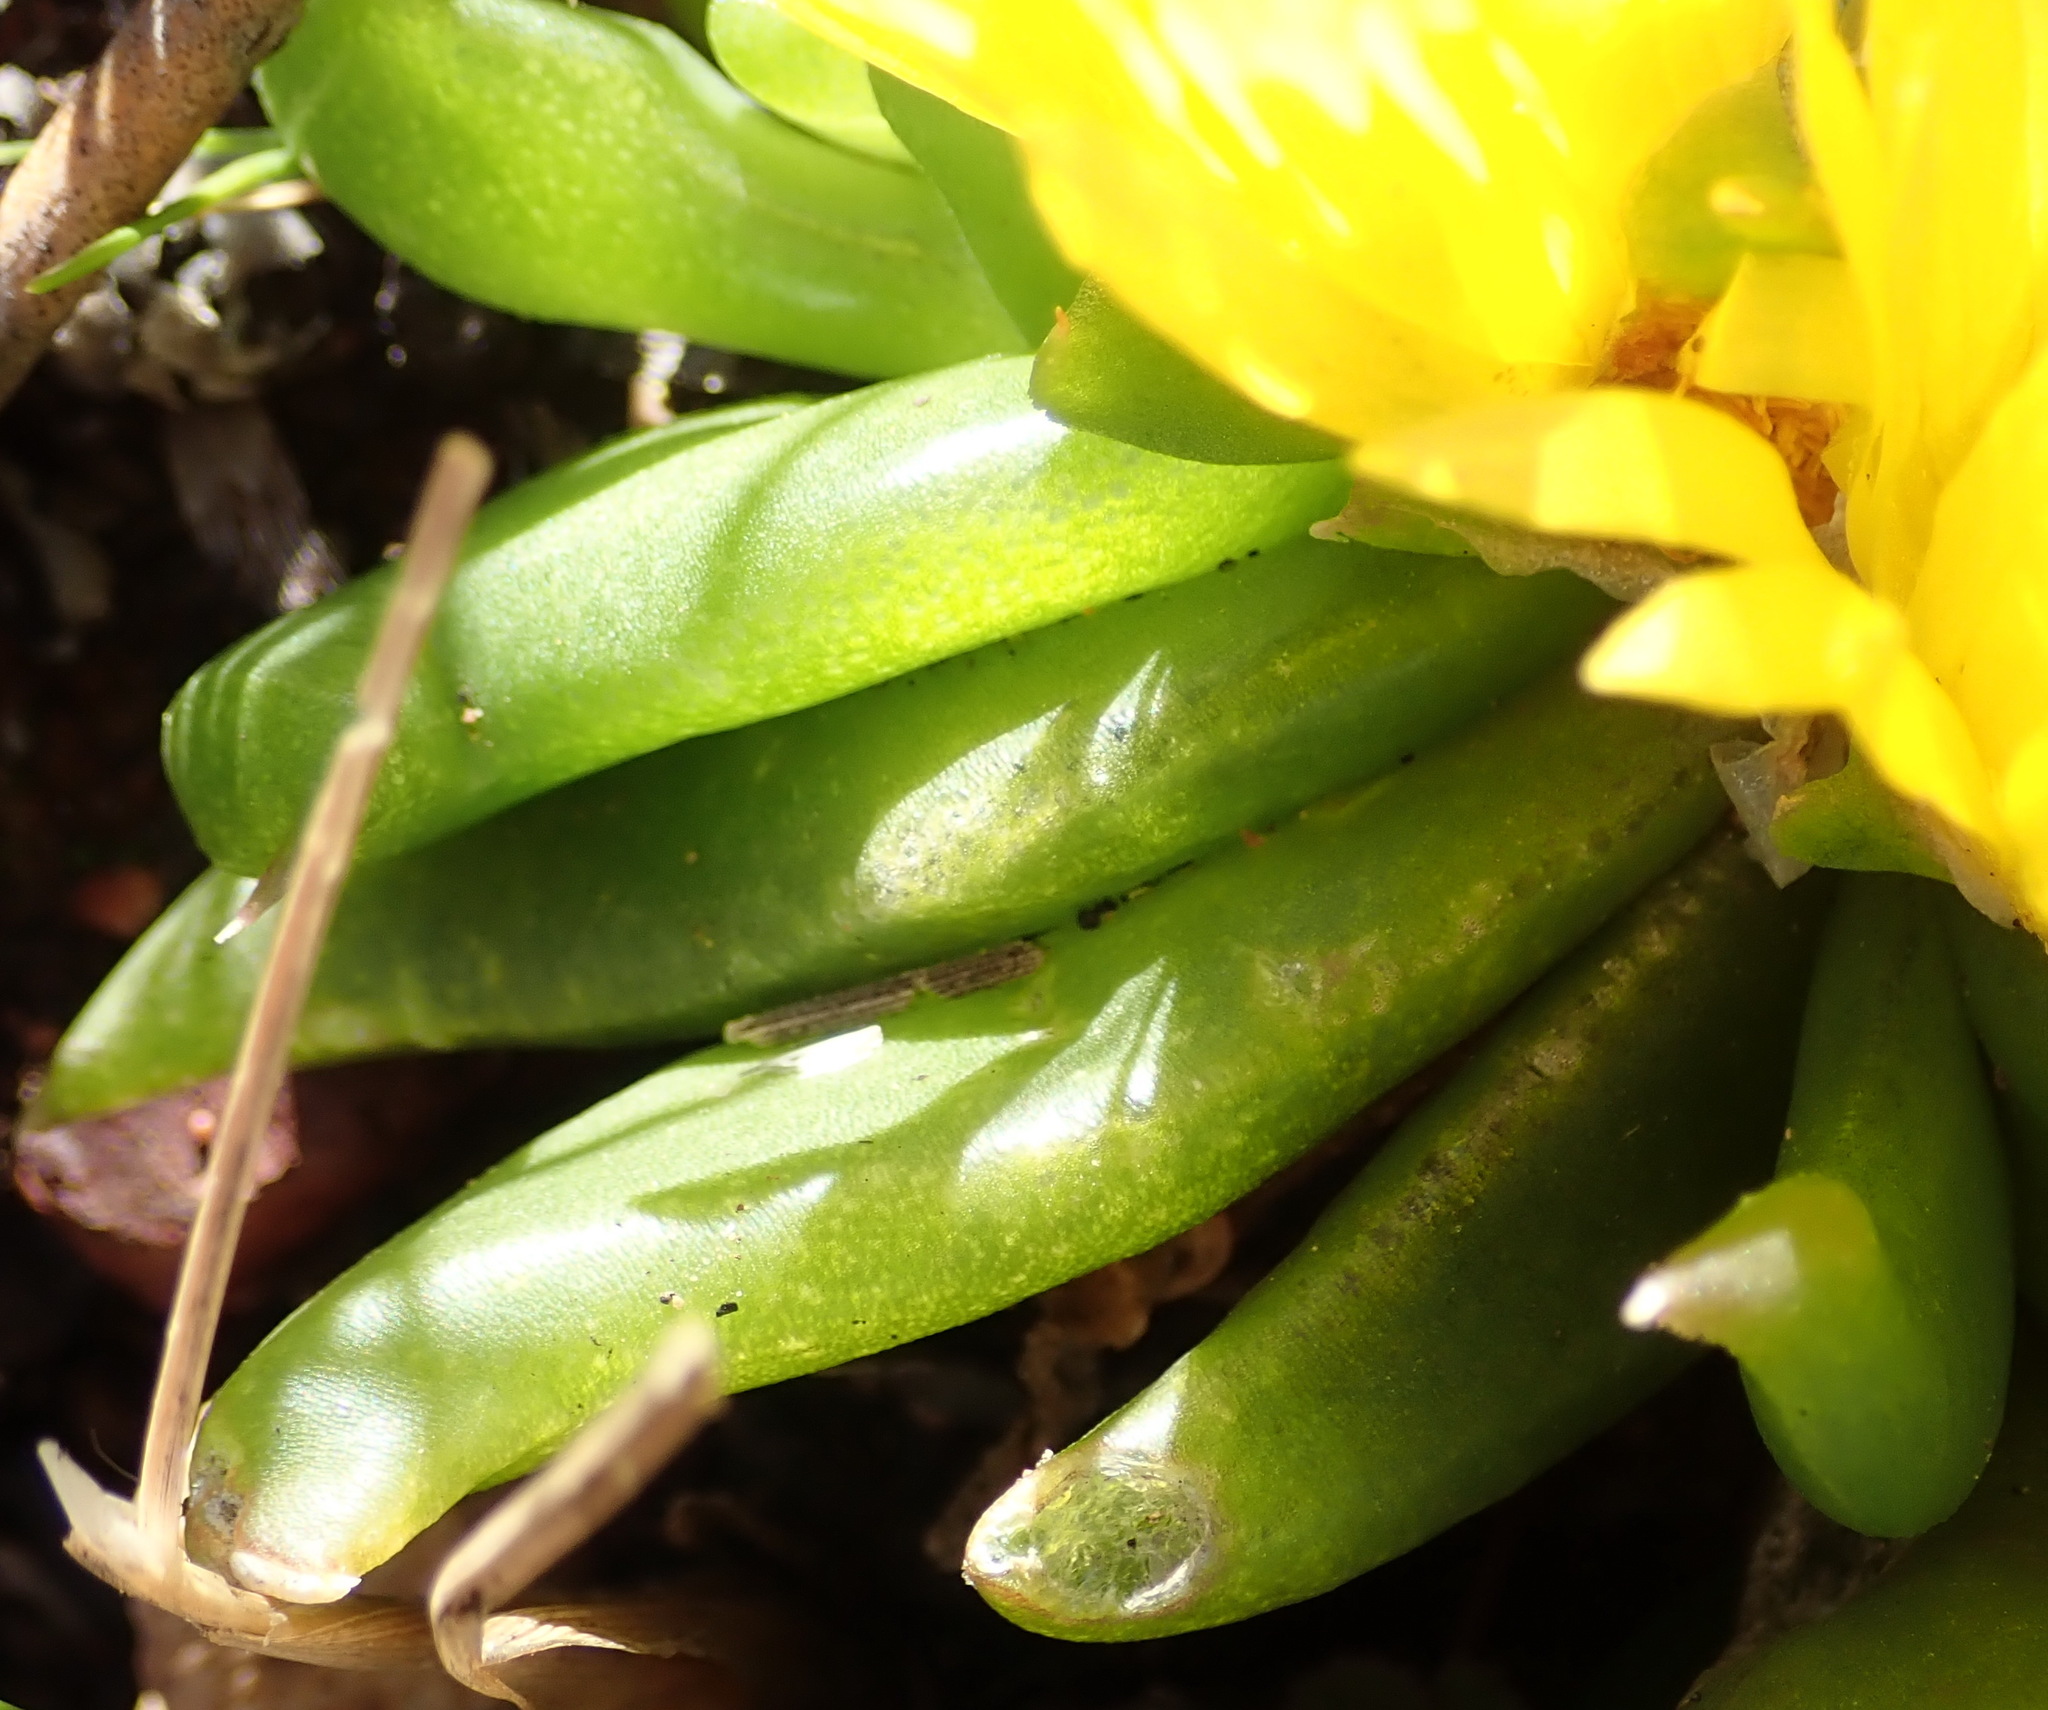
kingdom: Plantae
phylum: Tracheophyta
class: Magnoliopsida
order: Caryophyllales
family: Aizoaceae
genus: Glottiphyllum
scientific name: Glottiphyllum depressum
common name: Fig-marigold
